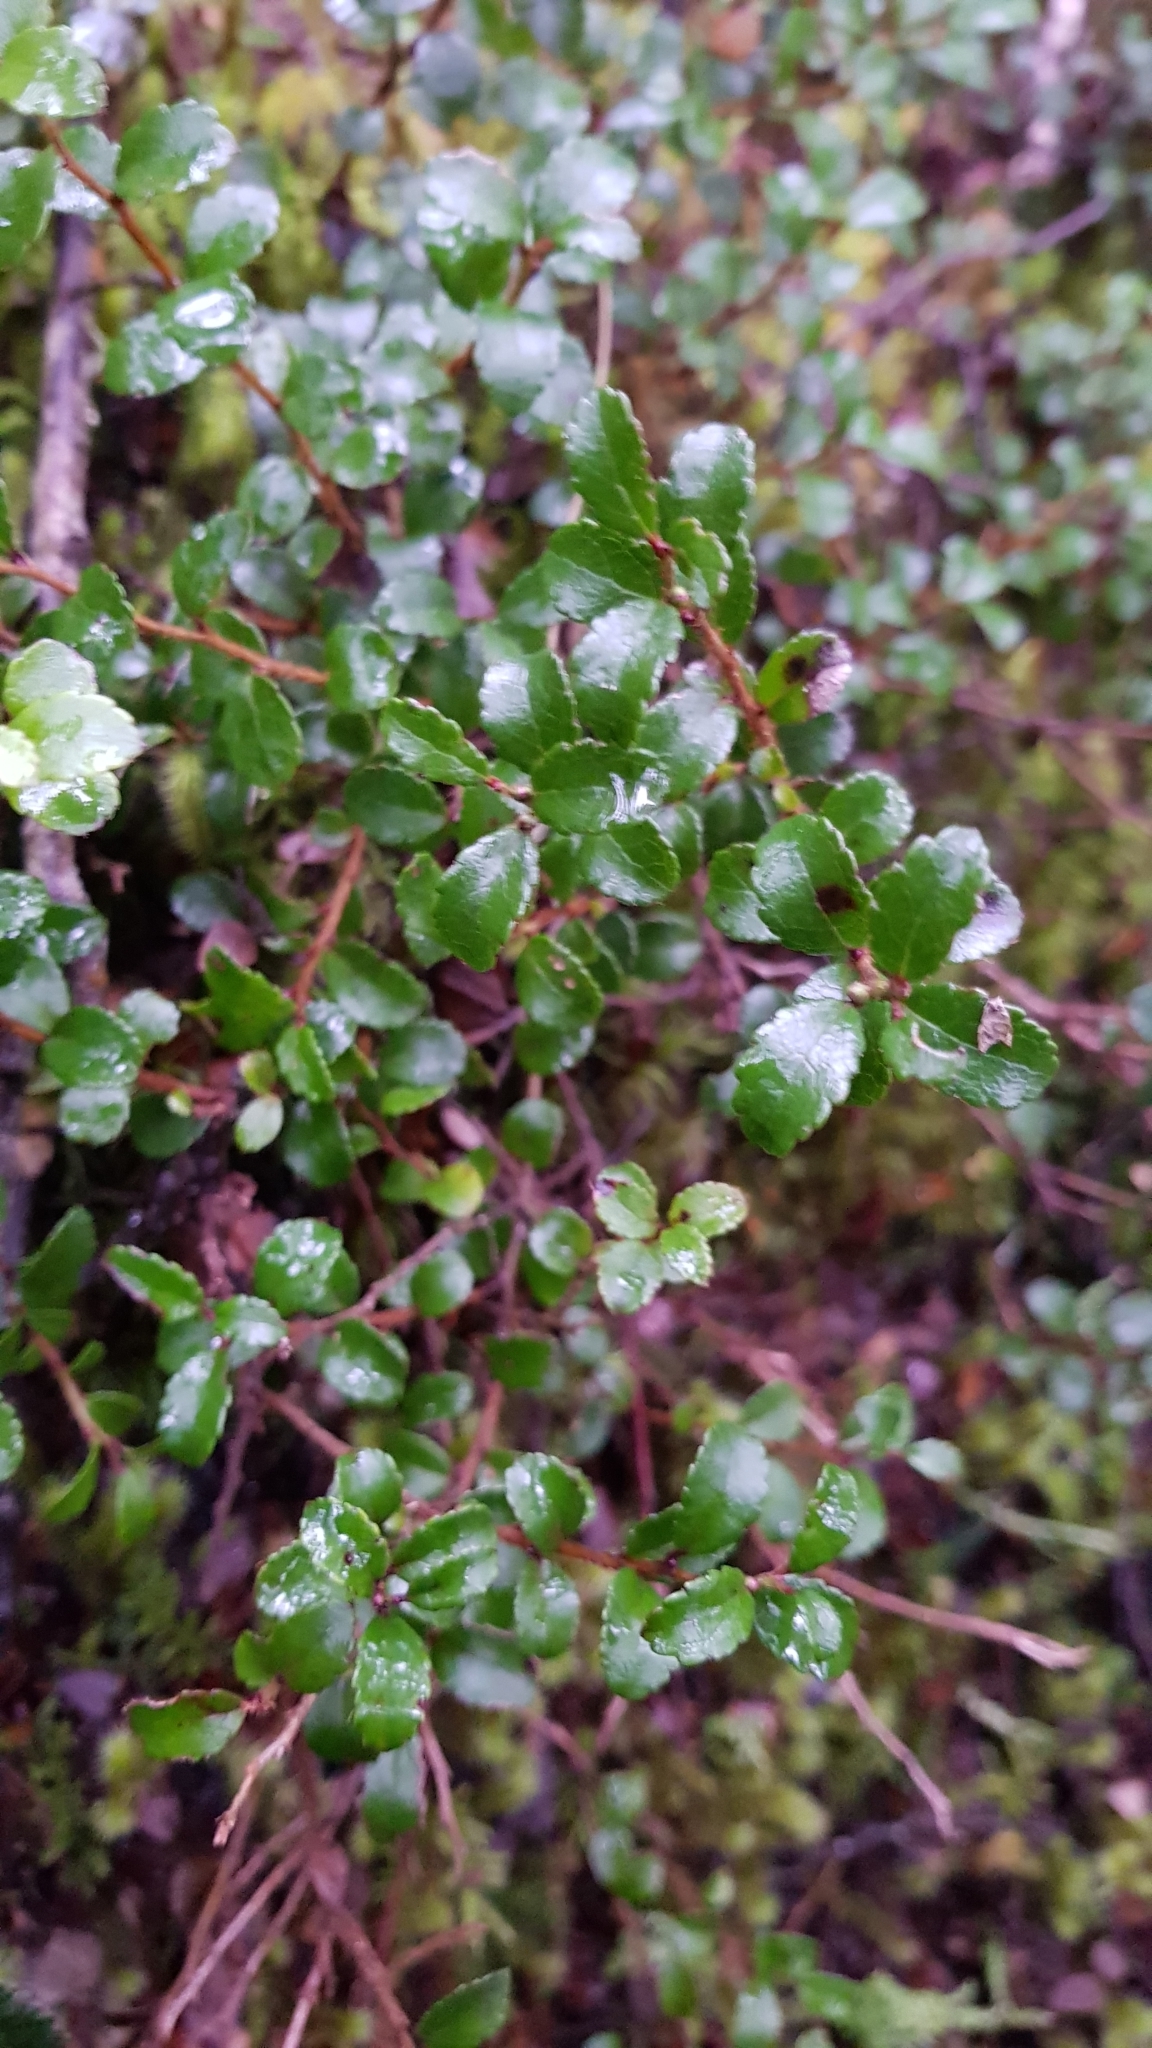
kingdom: Plantae
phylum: Tracheophyta
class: Magnoliopsida
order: Ericales
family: Ericaceae
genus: Gaultheria
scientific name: Gaultheria depressa
